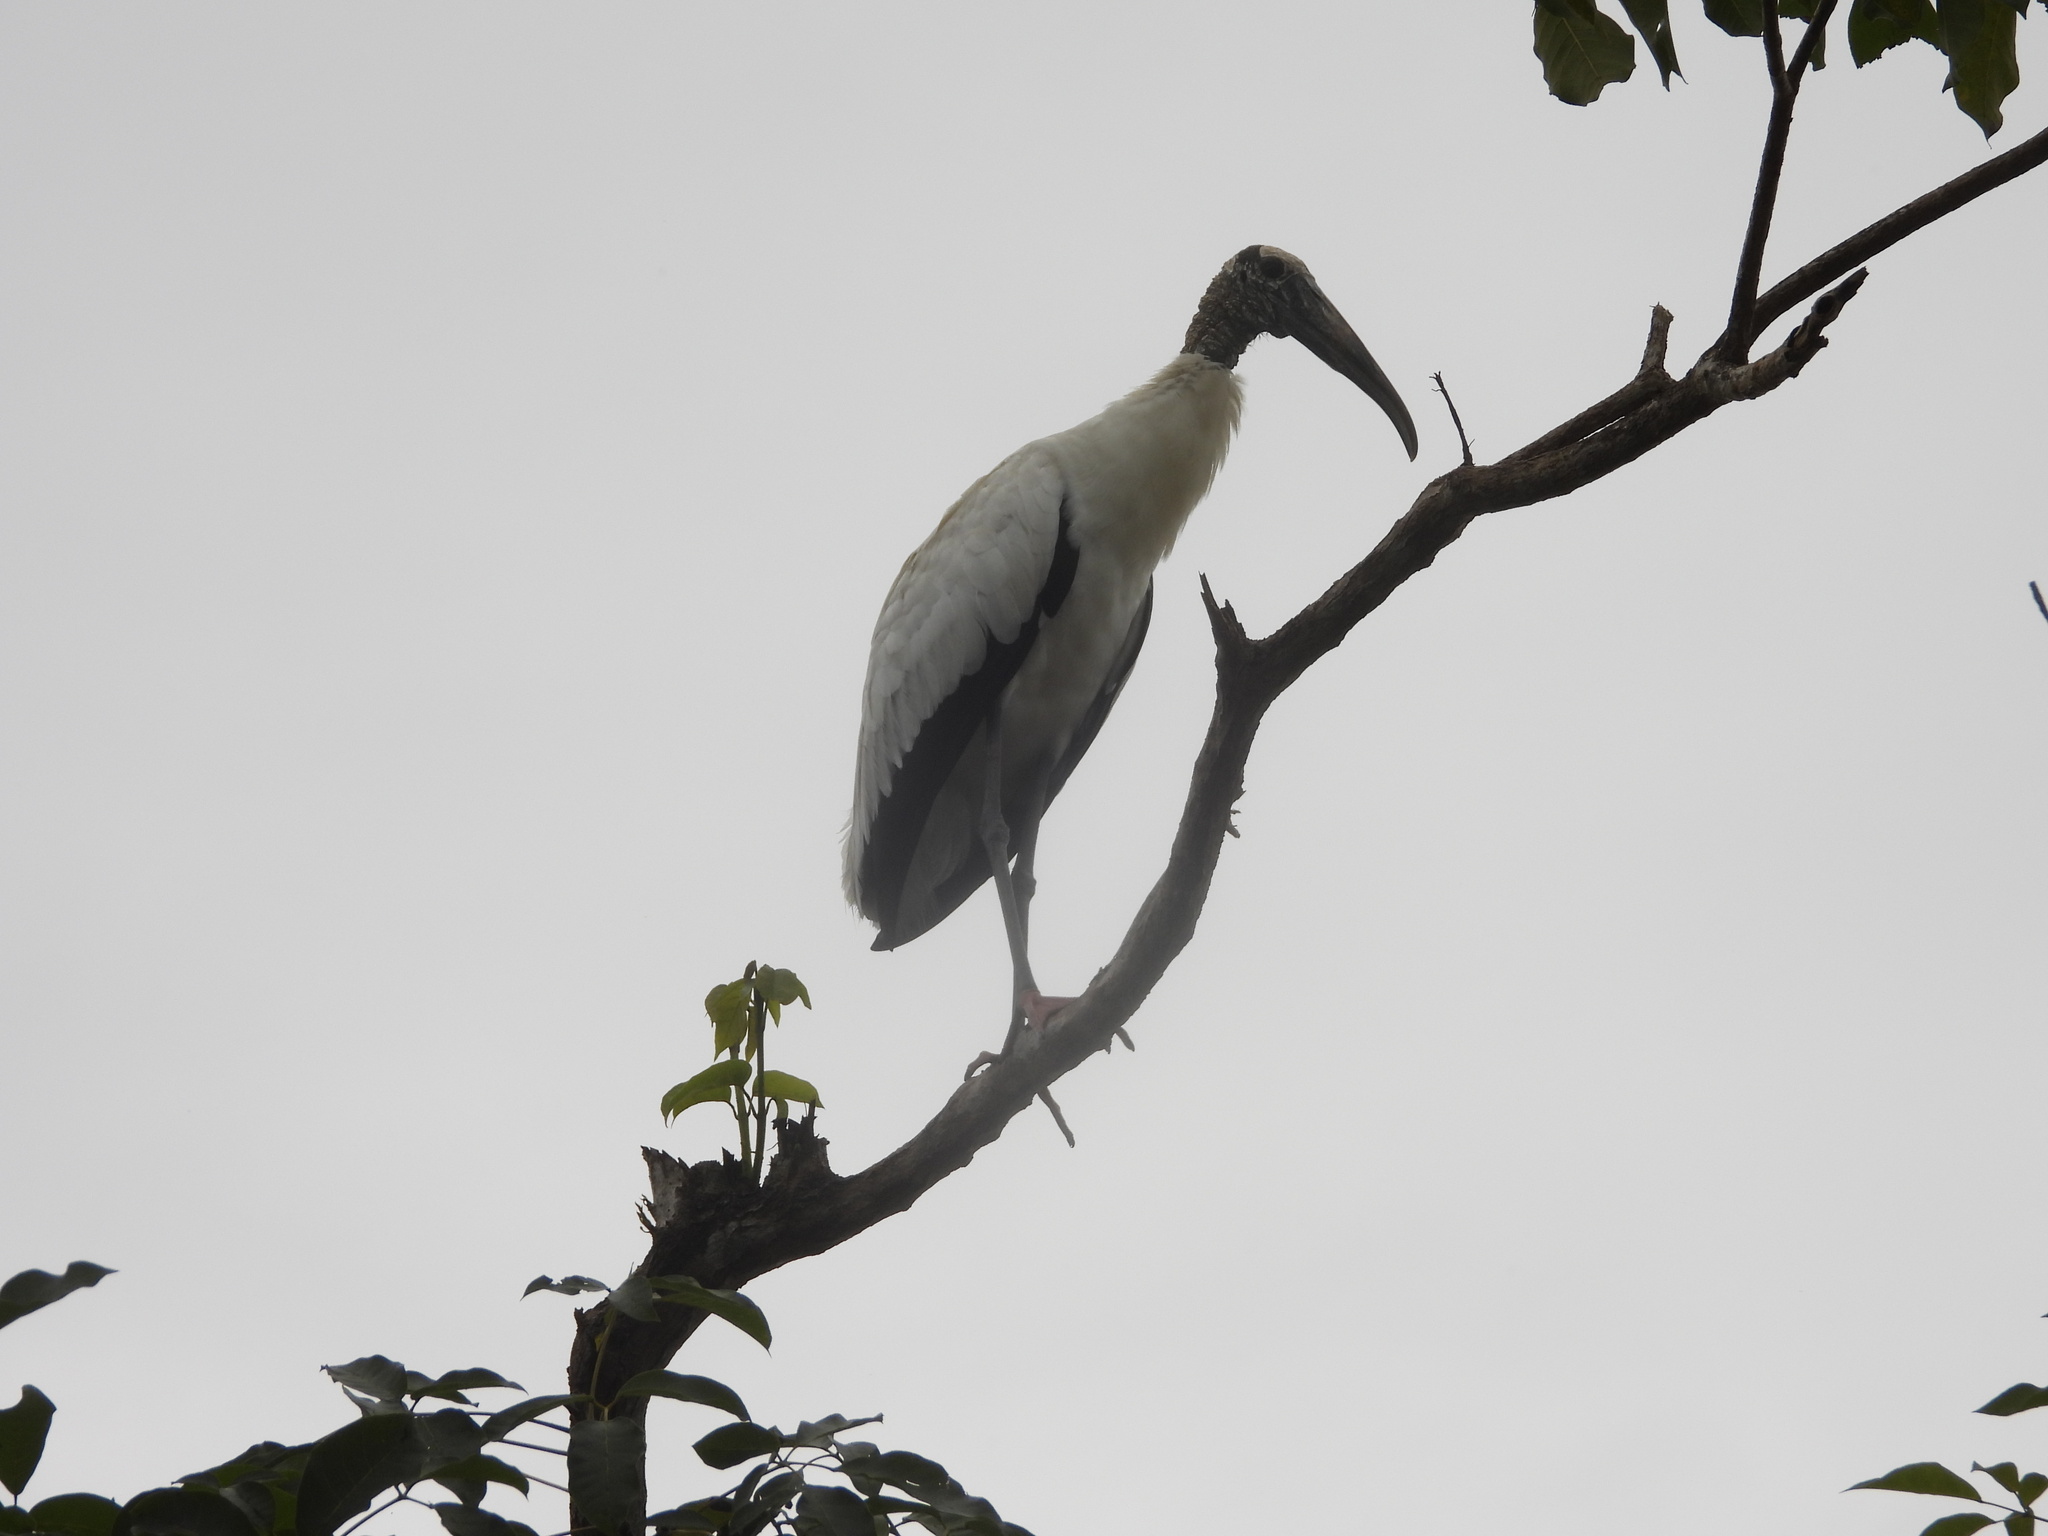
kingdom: Animalia
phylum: Chordata
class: Aves
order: Ciconiiformes
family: Ciconiidae
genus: Mycteria
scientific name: Mycteria americana
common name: Wood stork
